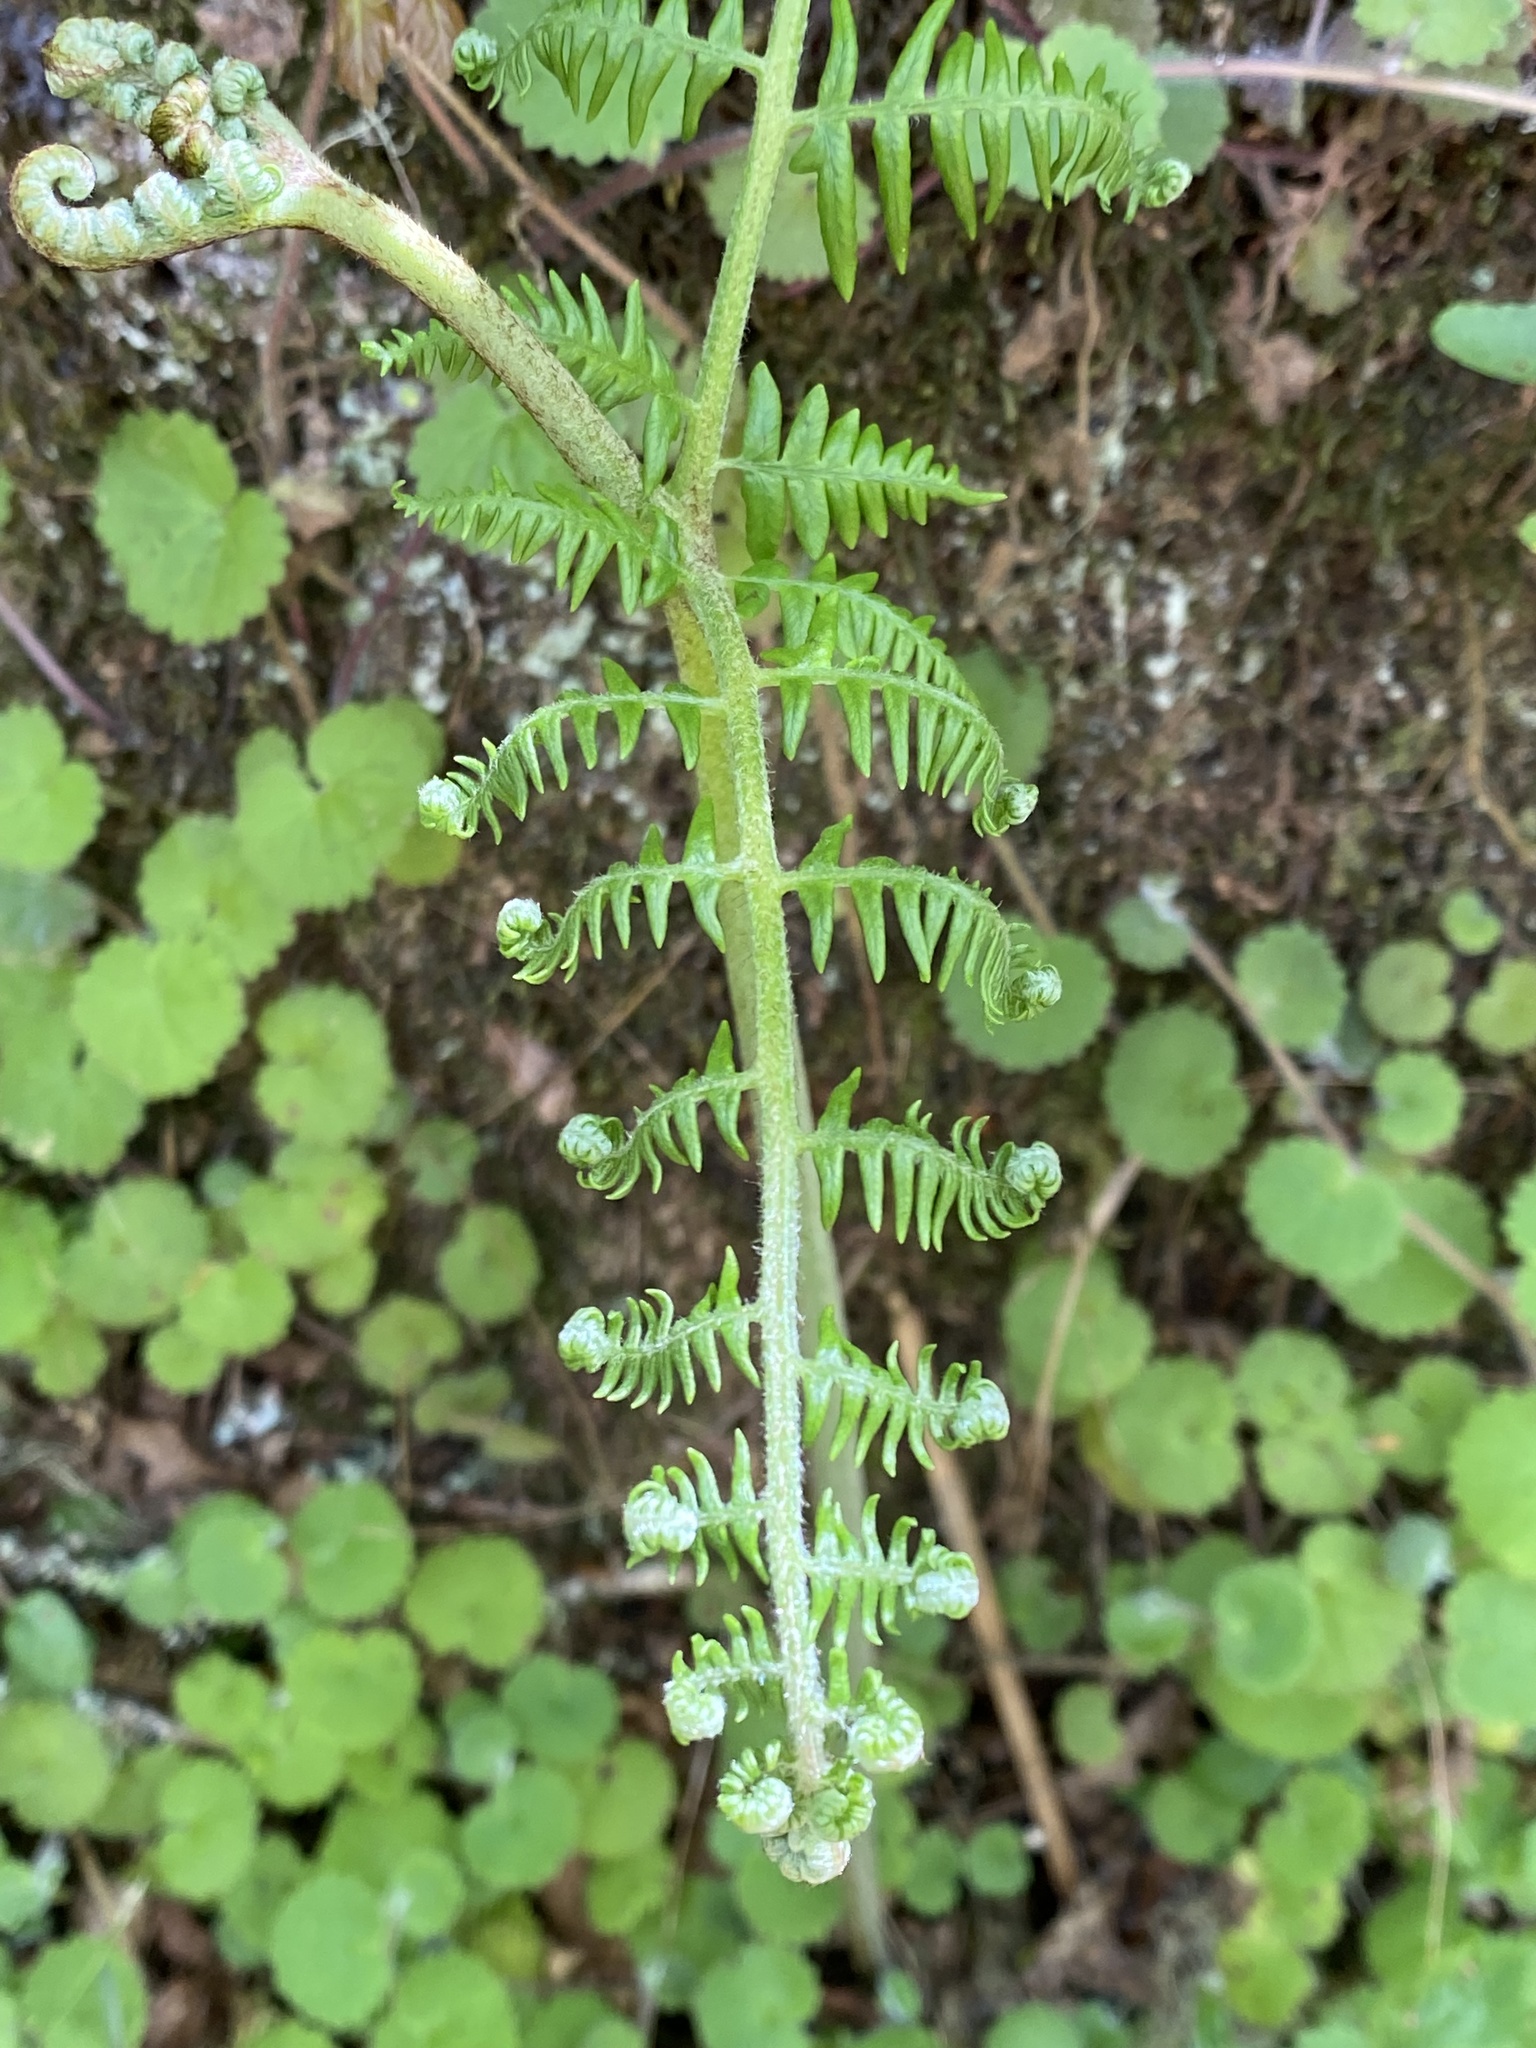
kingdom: Plantae
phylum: Tracheophyta
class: Polypodiopsida
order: Polypodiales
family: Dennstaedtiaceae
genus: Pteridium
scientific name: Pteridium aquilinum
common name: Bracken
